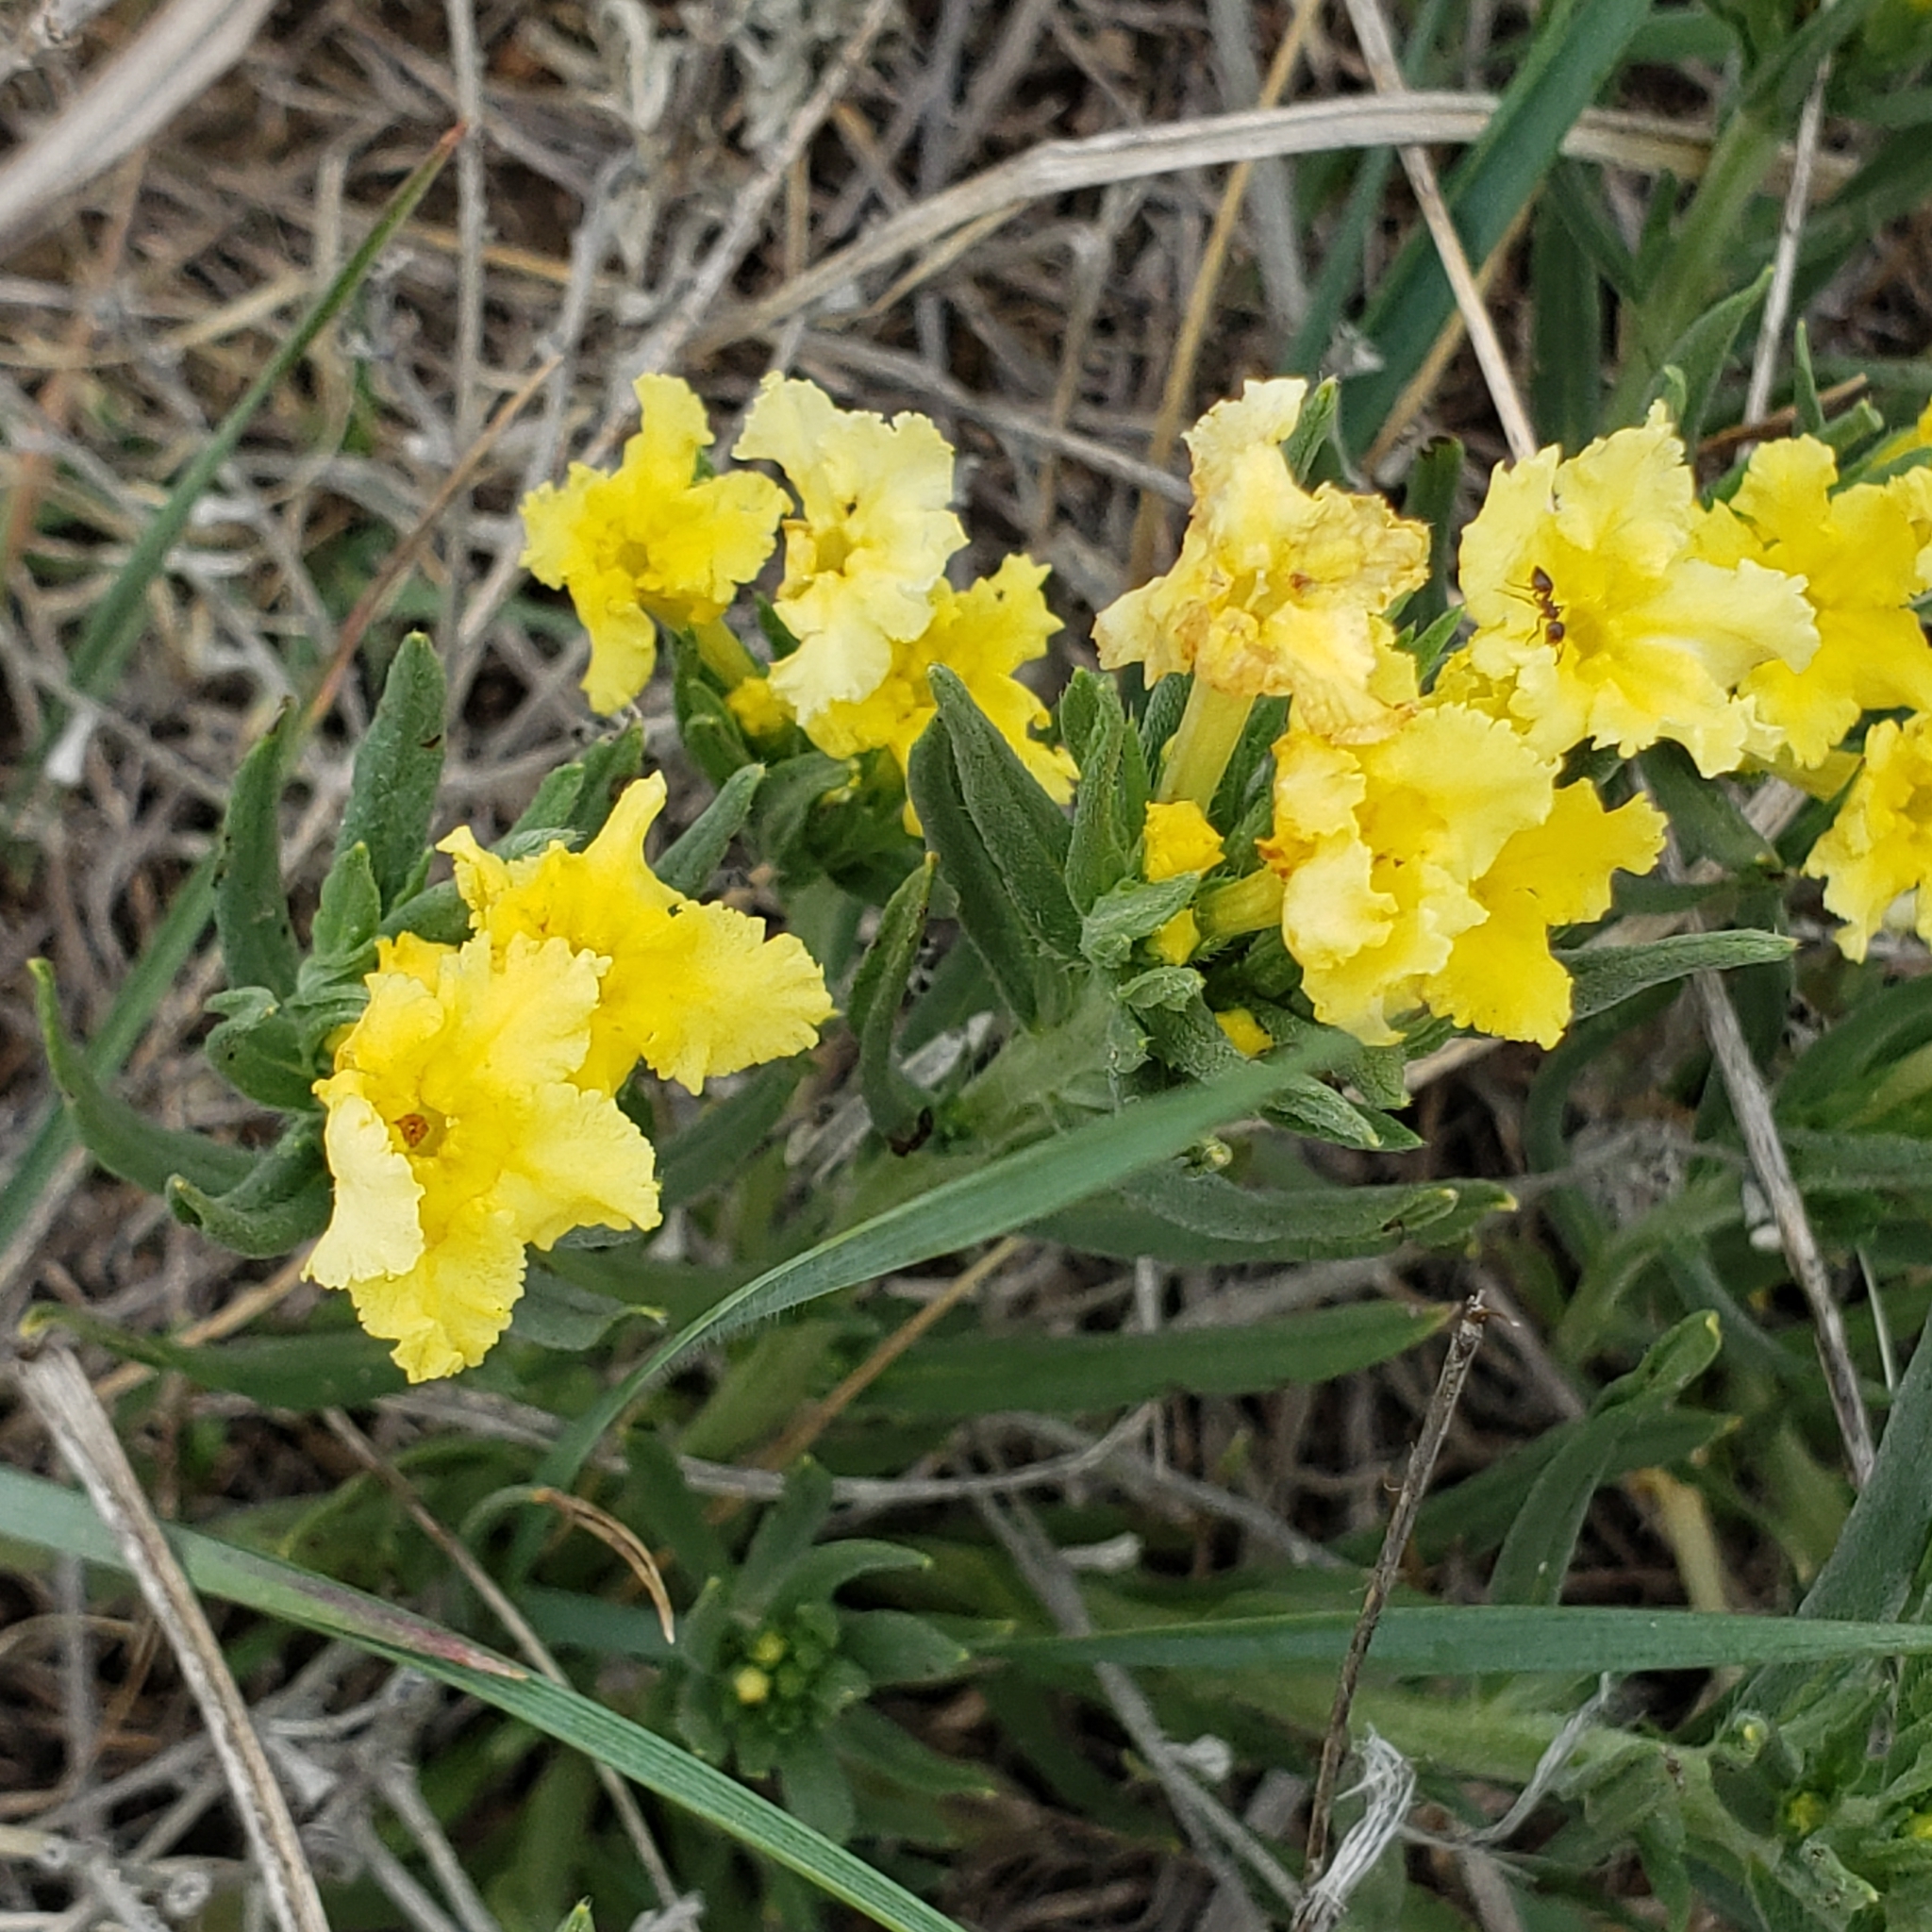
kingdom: Plantae
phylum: Tracheophyta
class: Magnoliopsida
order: Boraginales
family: Boraginaceae
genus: Lithospermum
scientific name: Lithospermum incisum
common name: Fringed gromwell
